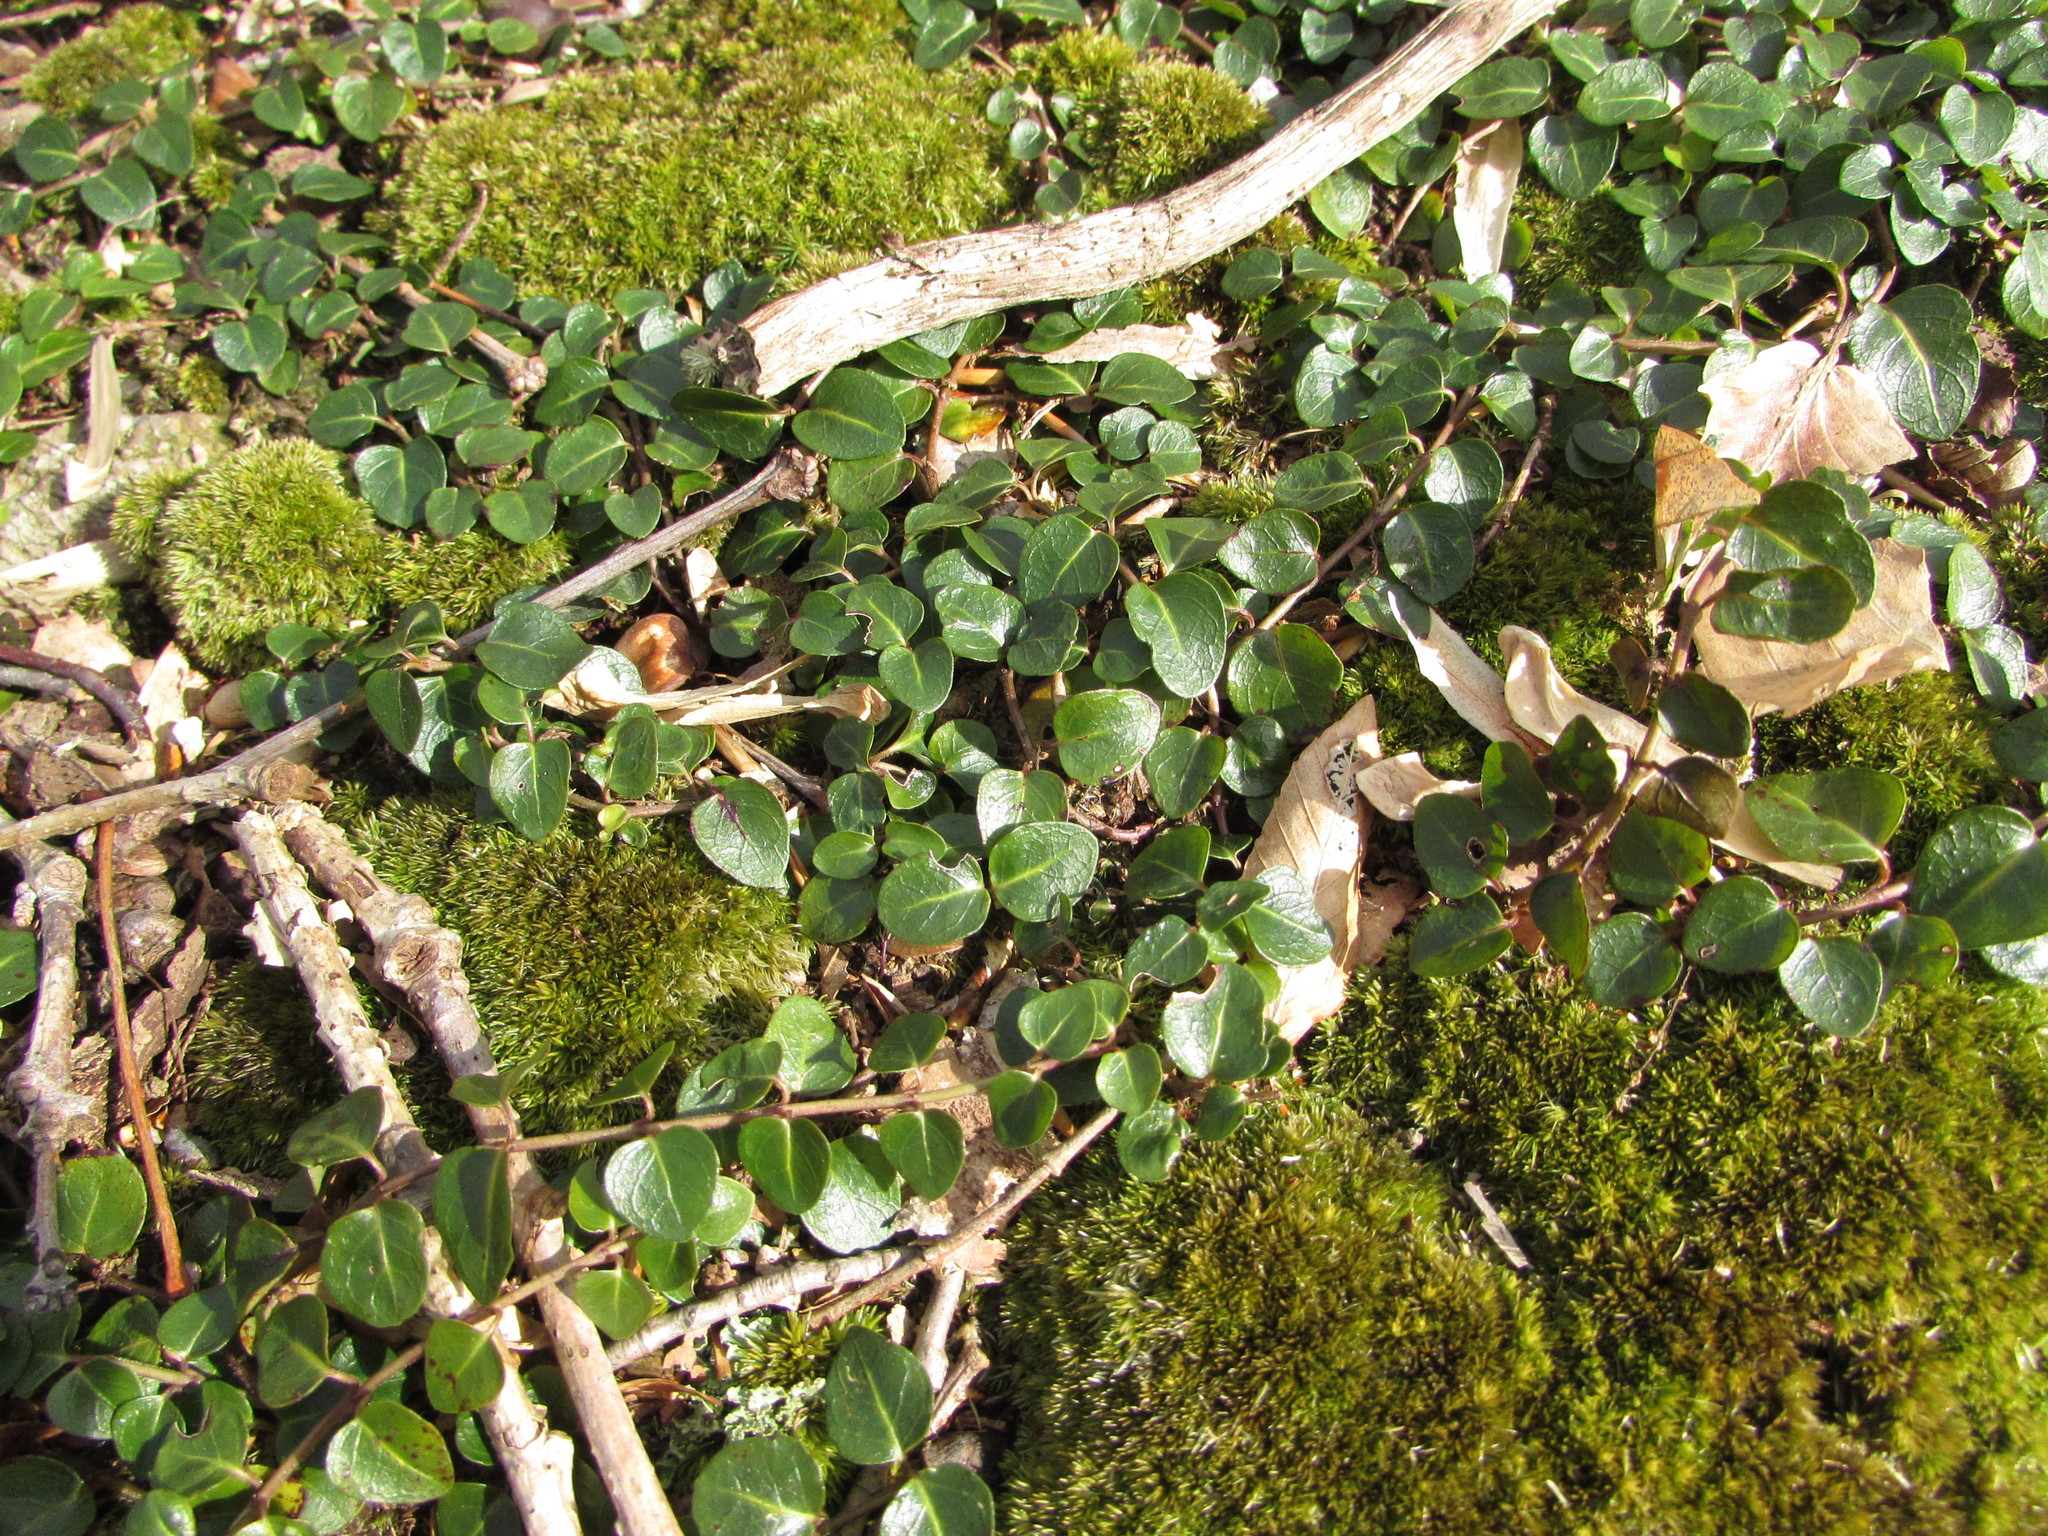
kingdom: Plantae
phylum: Tracheophyta
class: Magnoliopsida
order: Gentianales
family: Rubiaceae
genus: Mitchella
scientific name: Mitchella repens
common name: Partridge-berry
